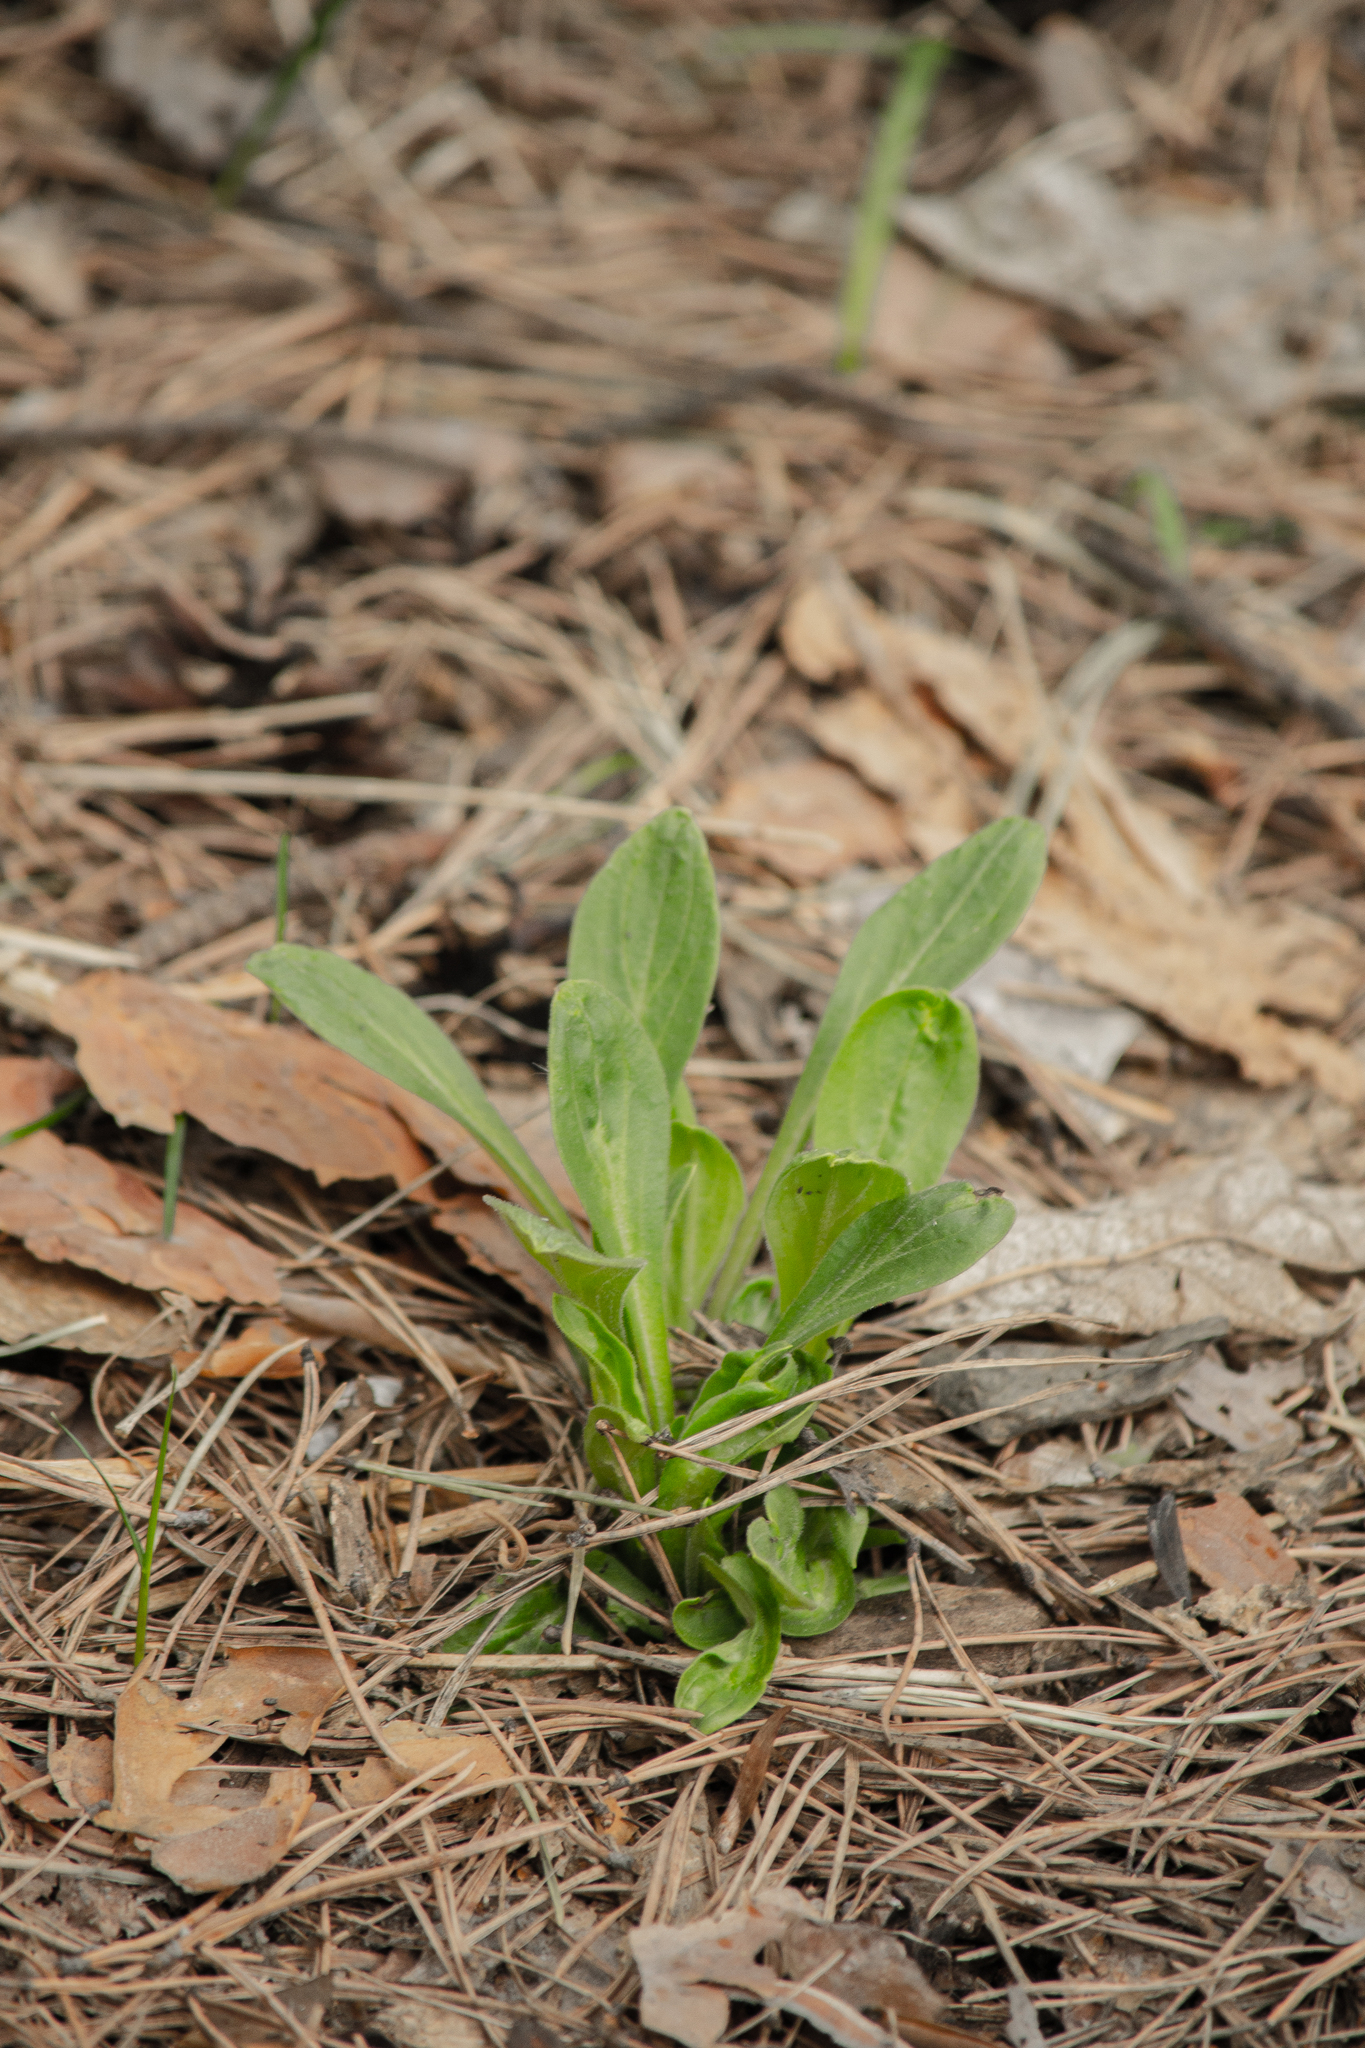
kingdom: Plantae
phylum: Tracheophyta
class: Magnoliopsida
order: Caryophyllales
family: Caryophyllaceae
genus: Silene
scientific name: Silene nutans
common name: Nottingham catchfly
